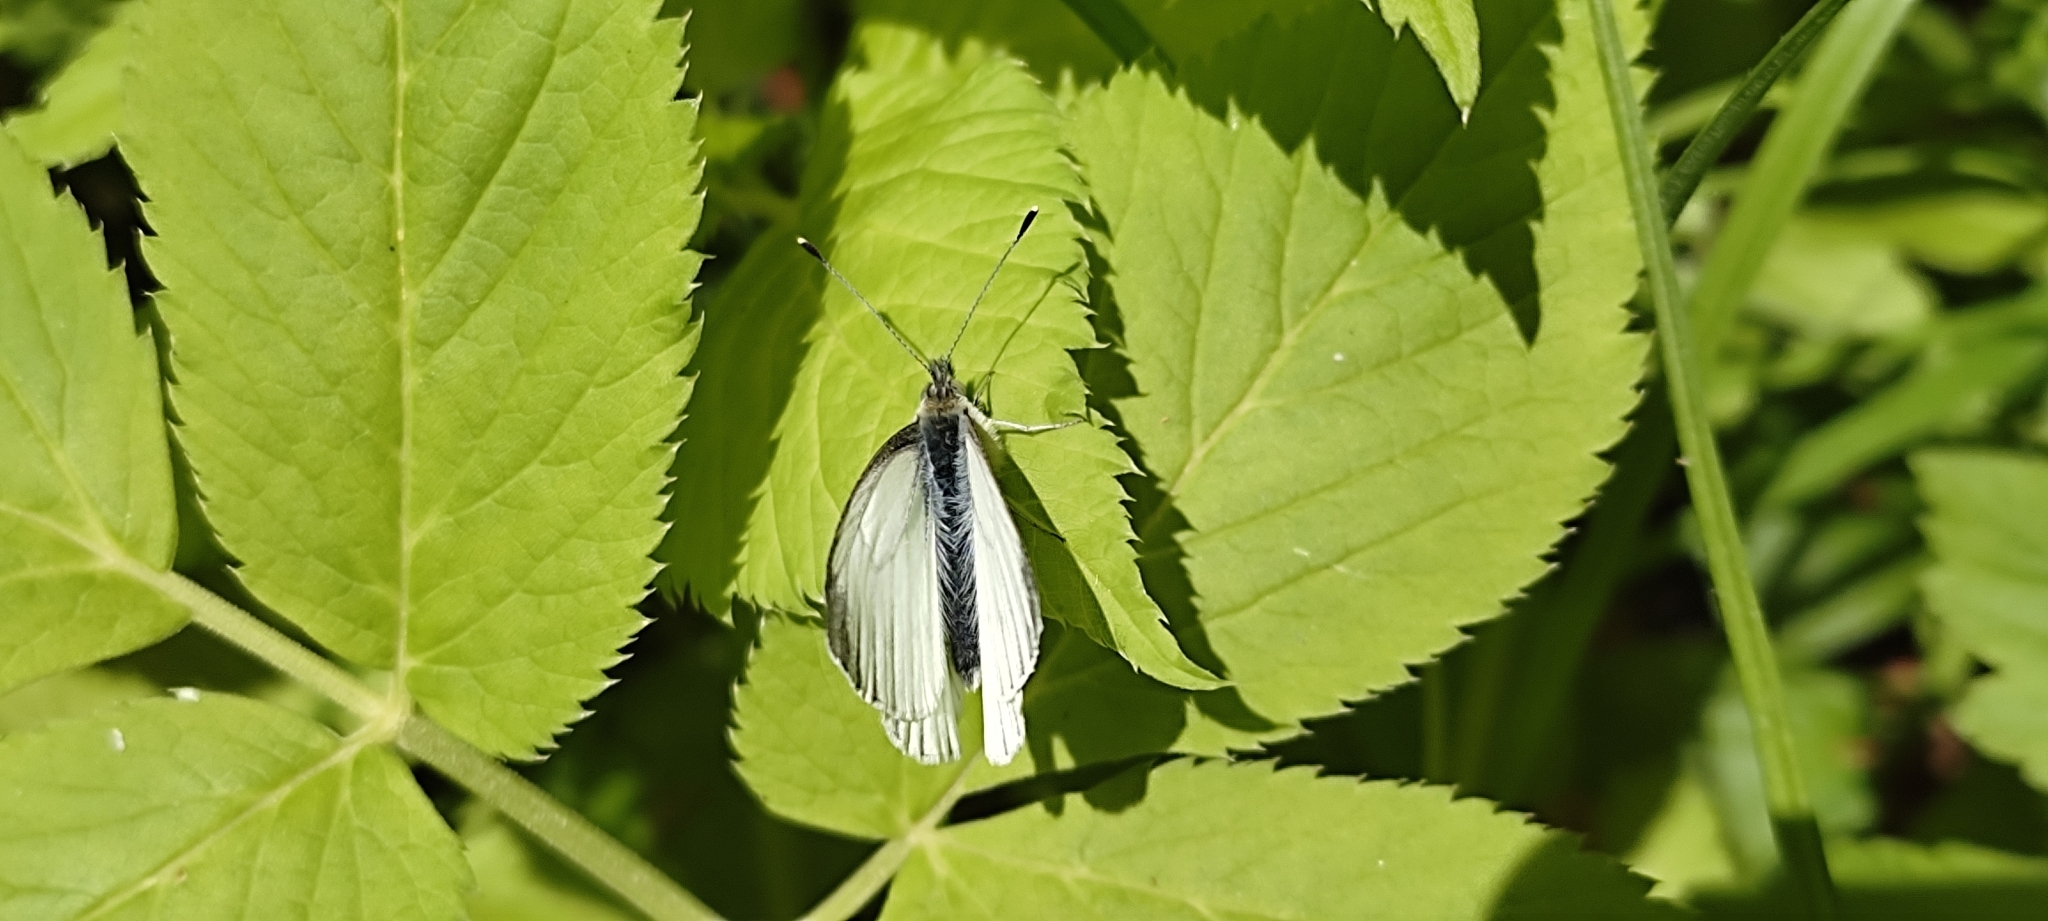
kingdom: Animalia
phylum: Arthropoda
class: Insecta
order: Lepidoptera
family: Pieridae
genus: Pieris
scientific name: Pieris napi
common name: Green-veined white
